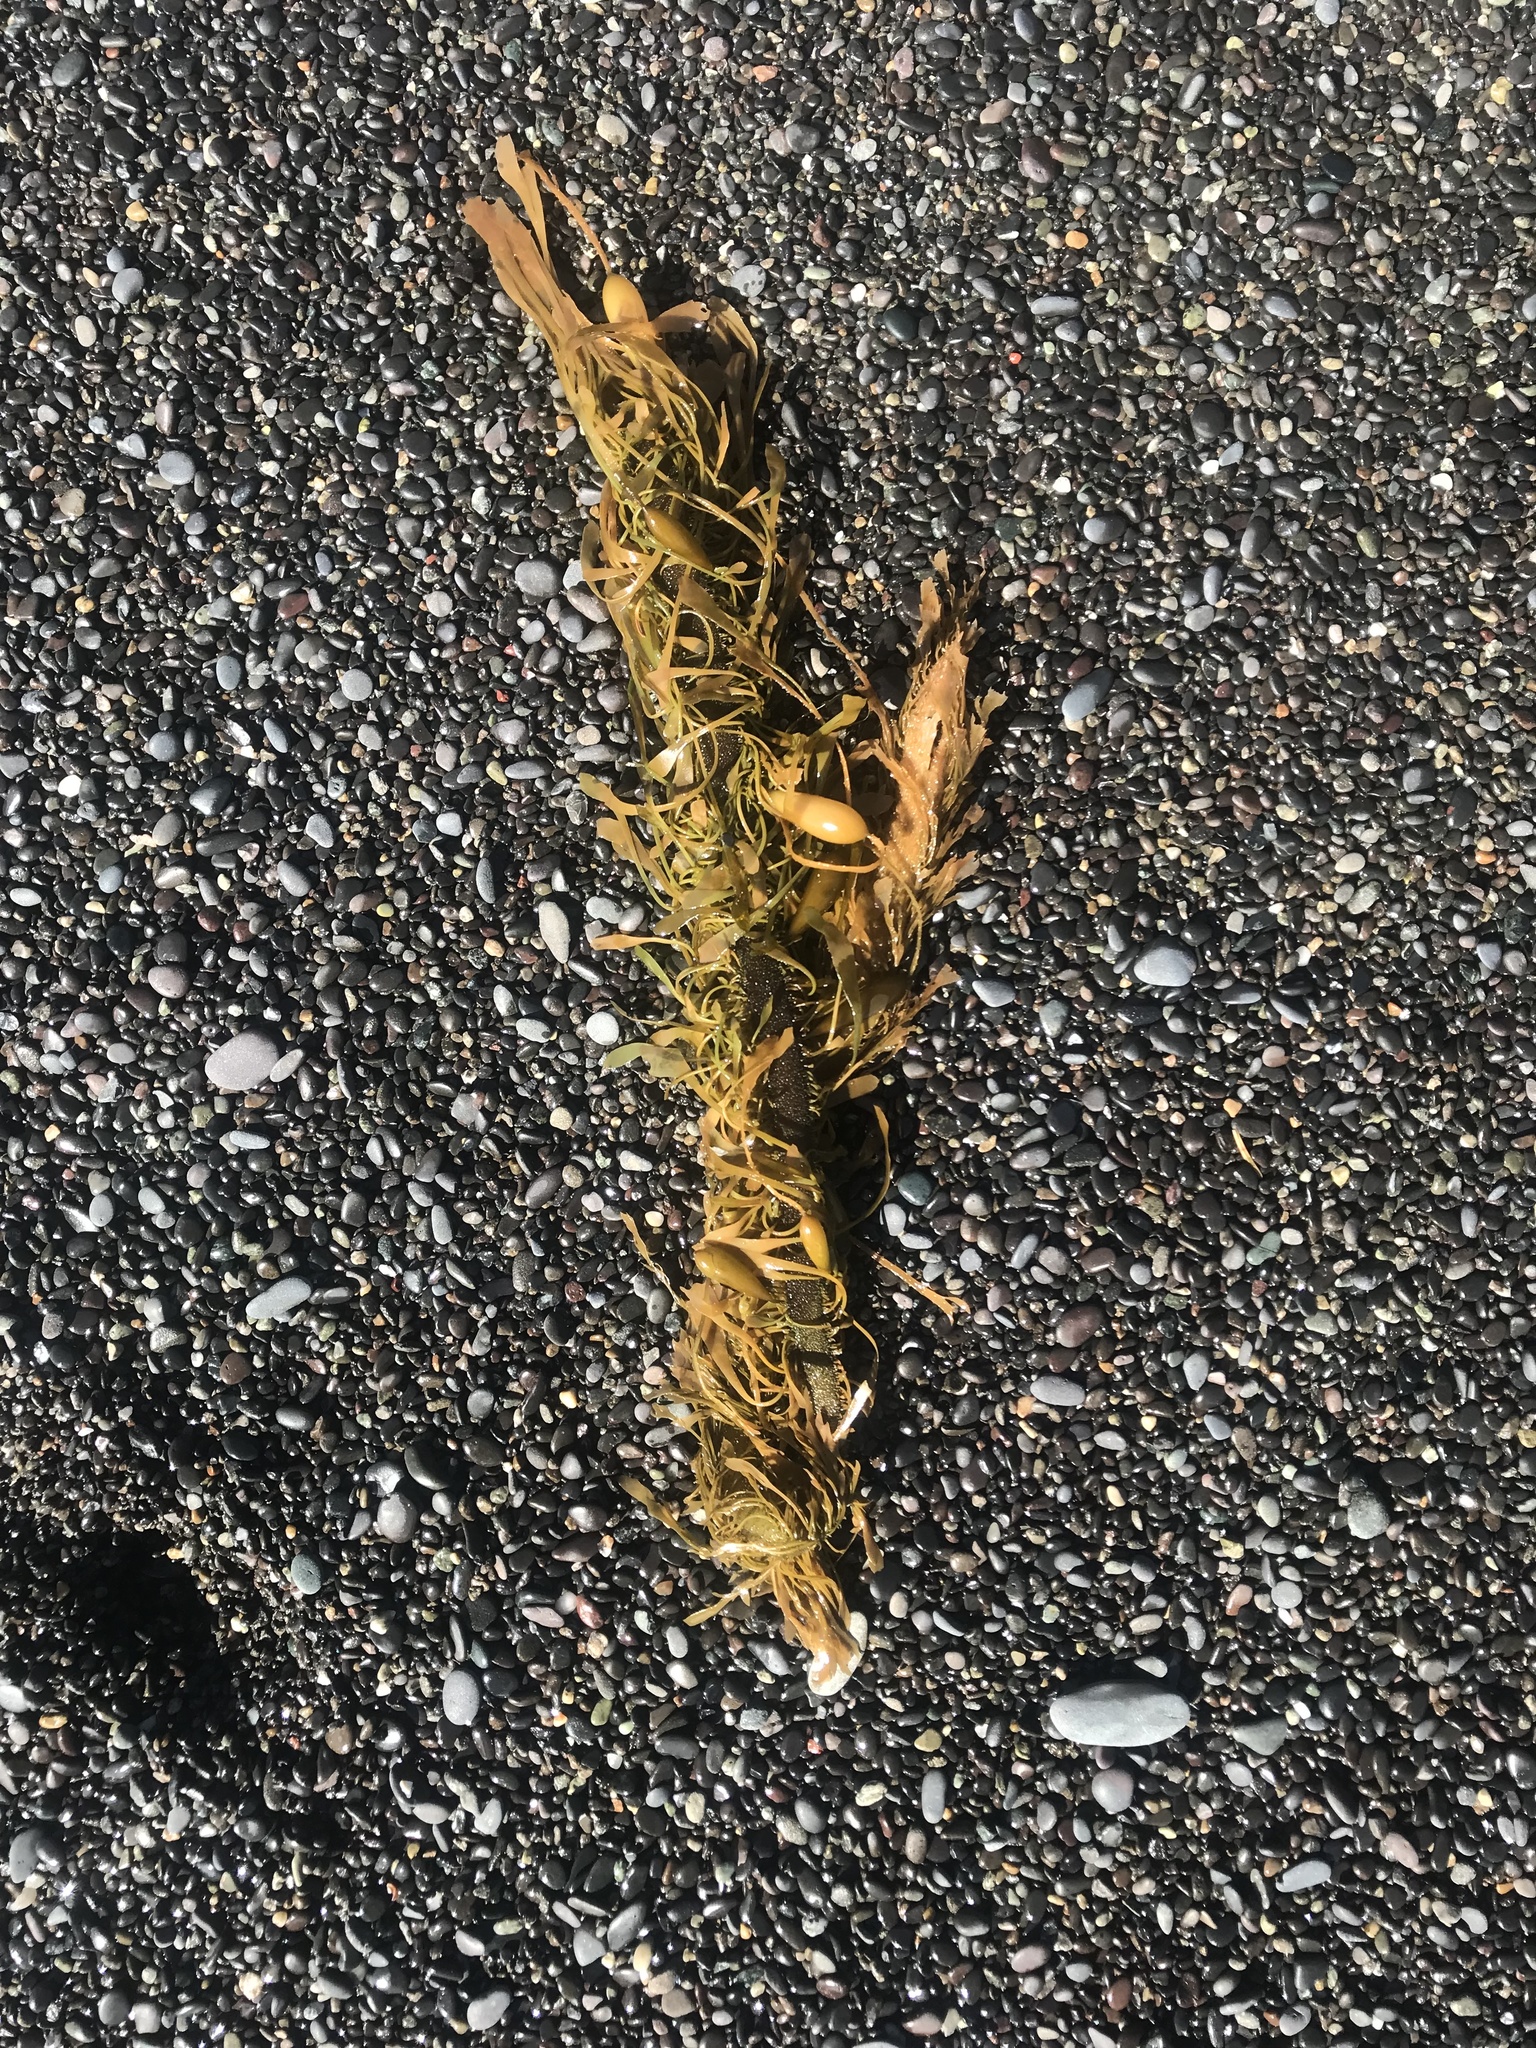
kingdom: Chromista
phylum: Ochrophyta
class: Phaeophyceae
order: Laminariales
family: Lessoniaceae
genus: Egregia
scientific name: Egregia menziesii
